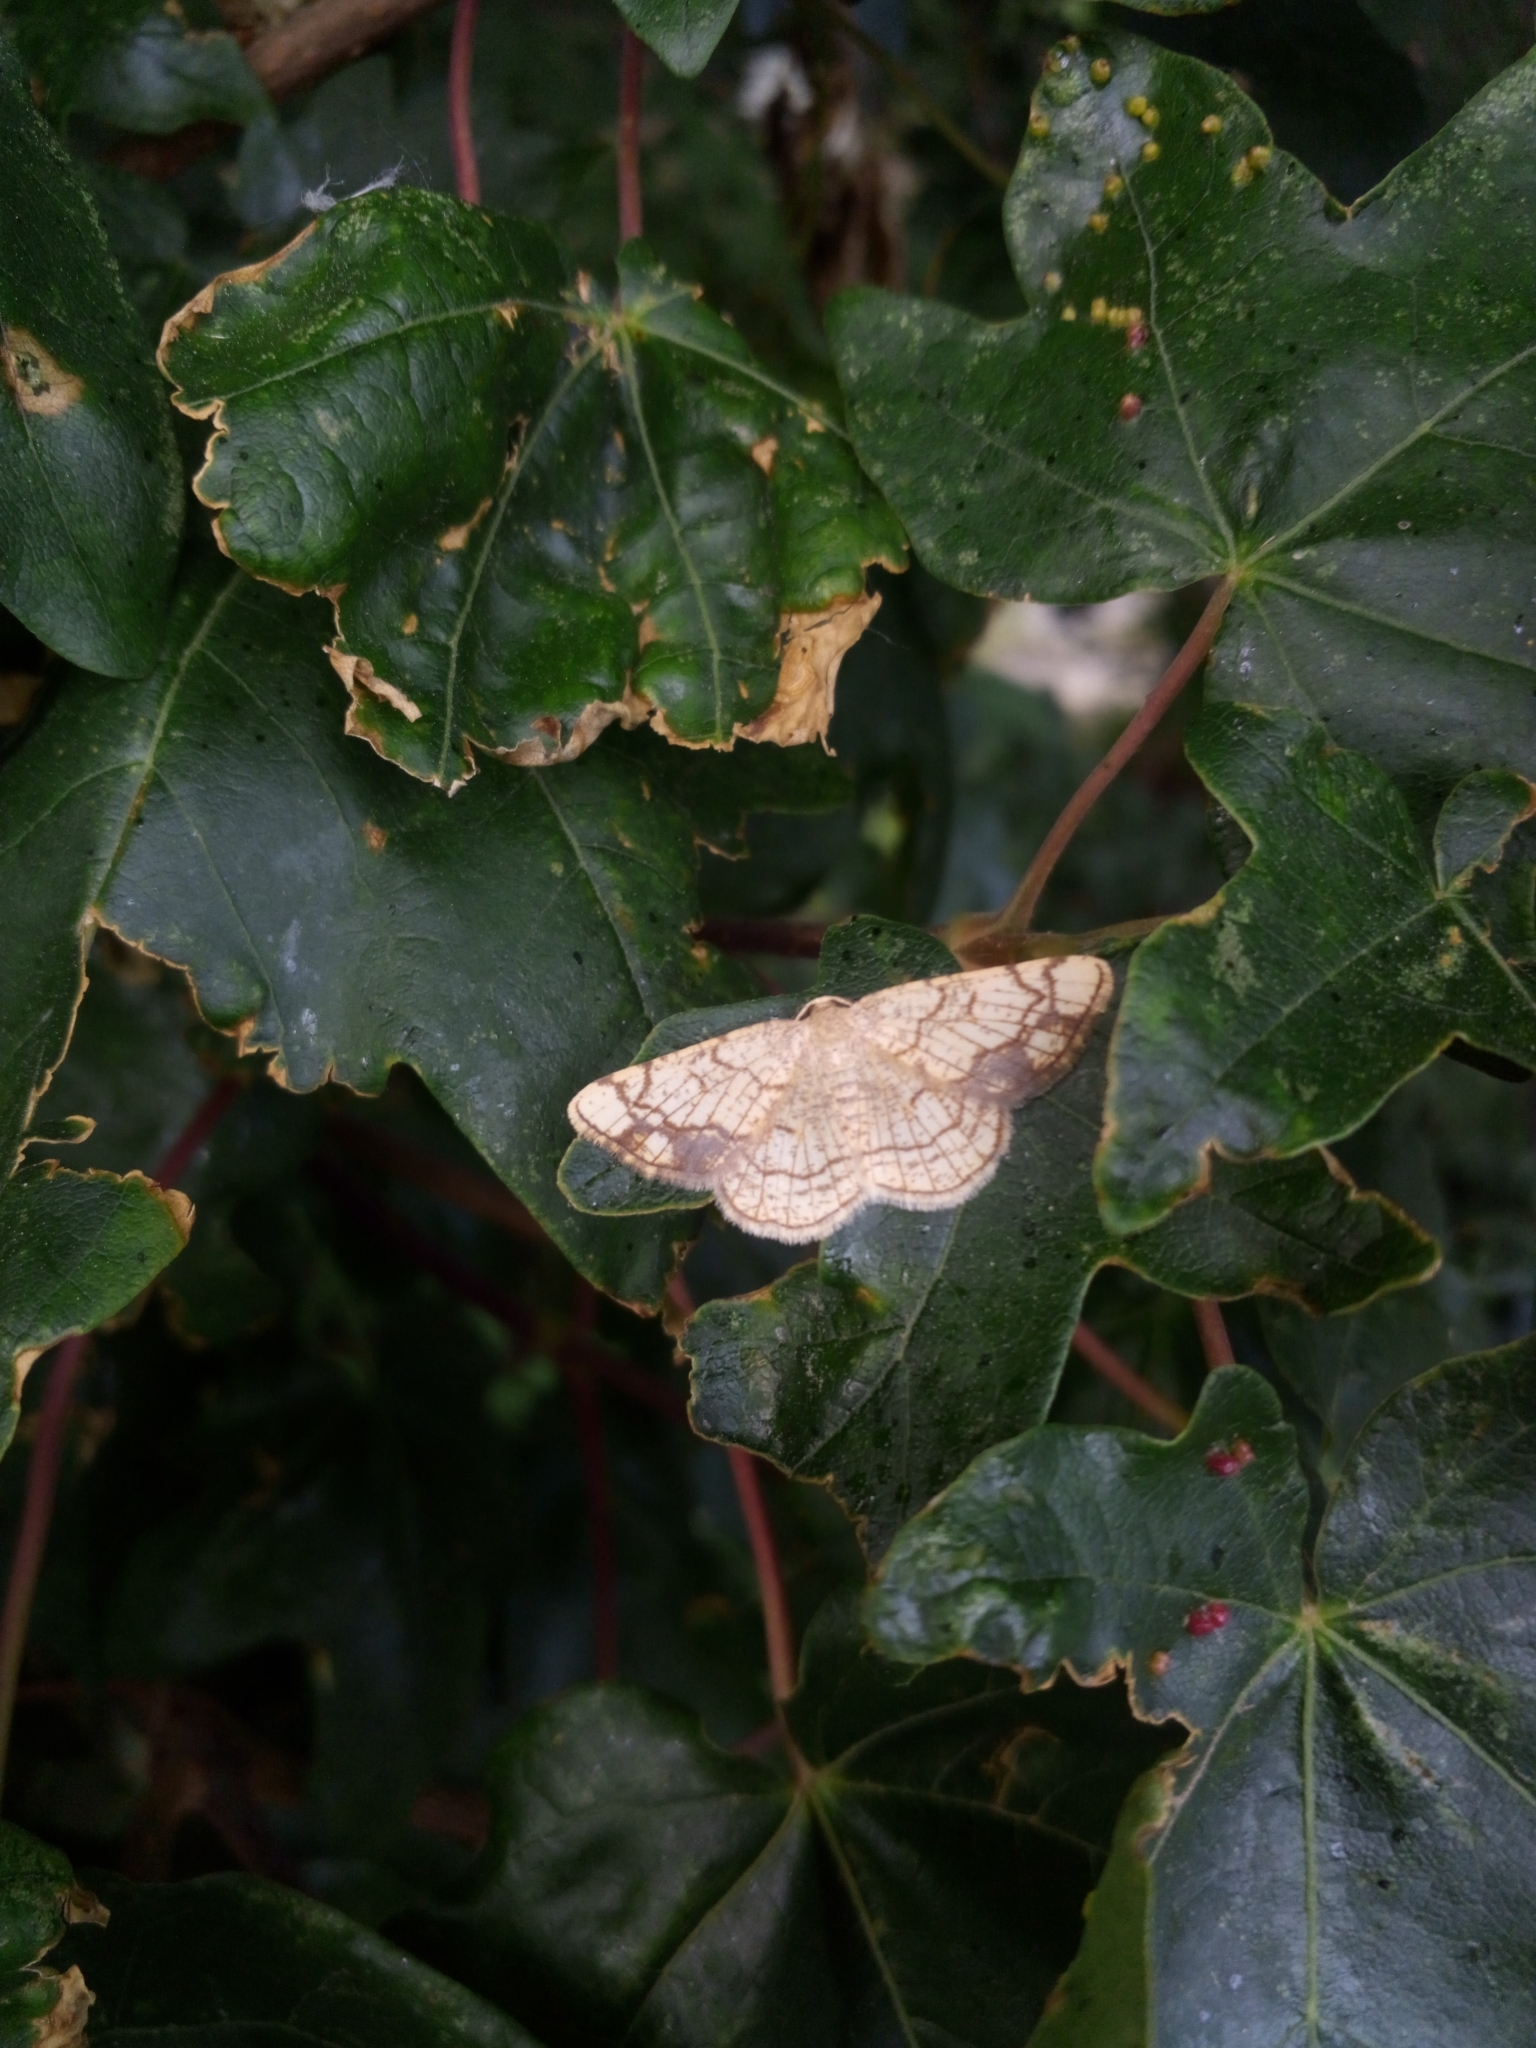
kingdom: Animalia
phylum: Arthropoda
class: Insecta
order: Lepidoptera
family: Geometridae
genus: Stegania
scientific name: Stegania dilectaria
